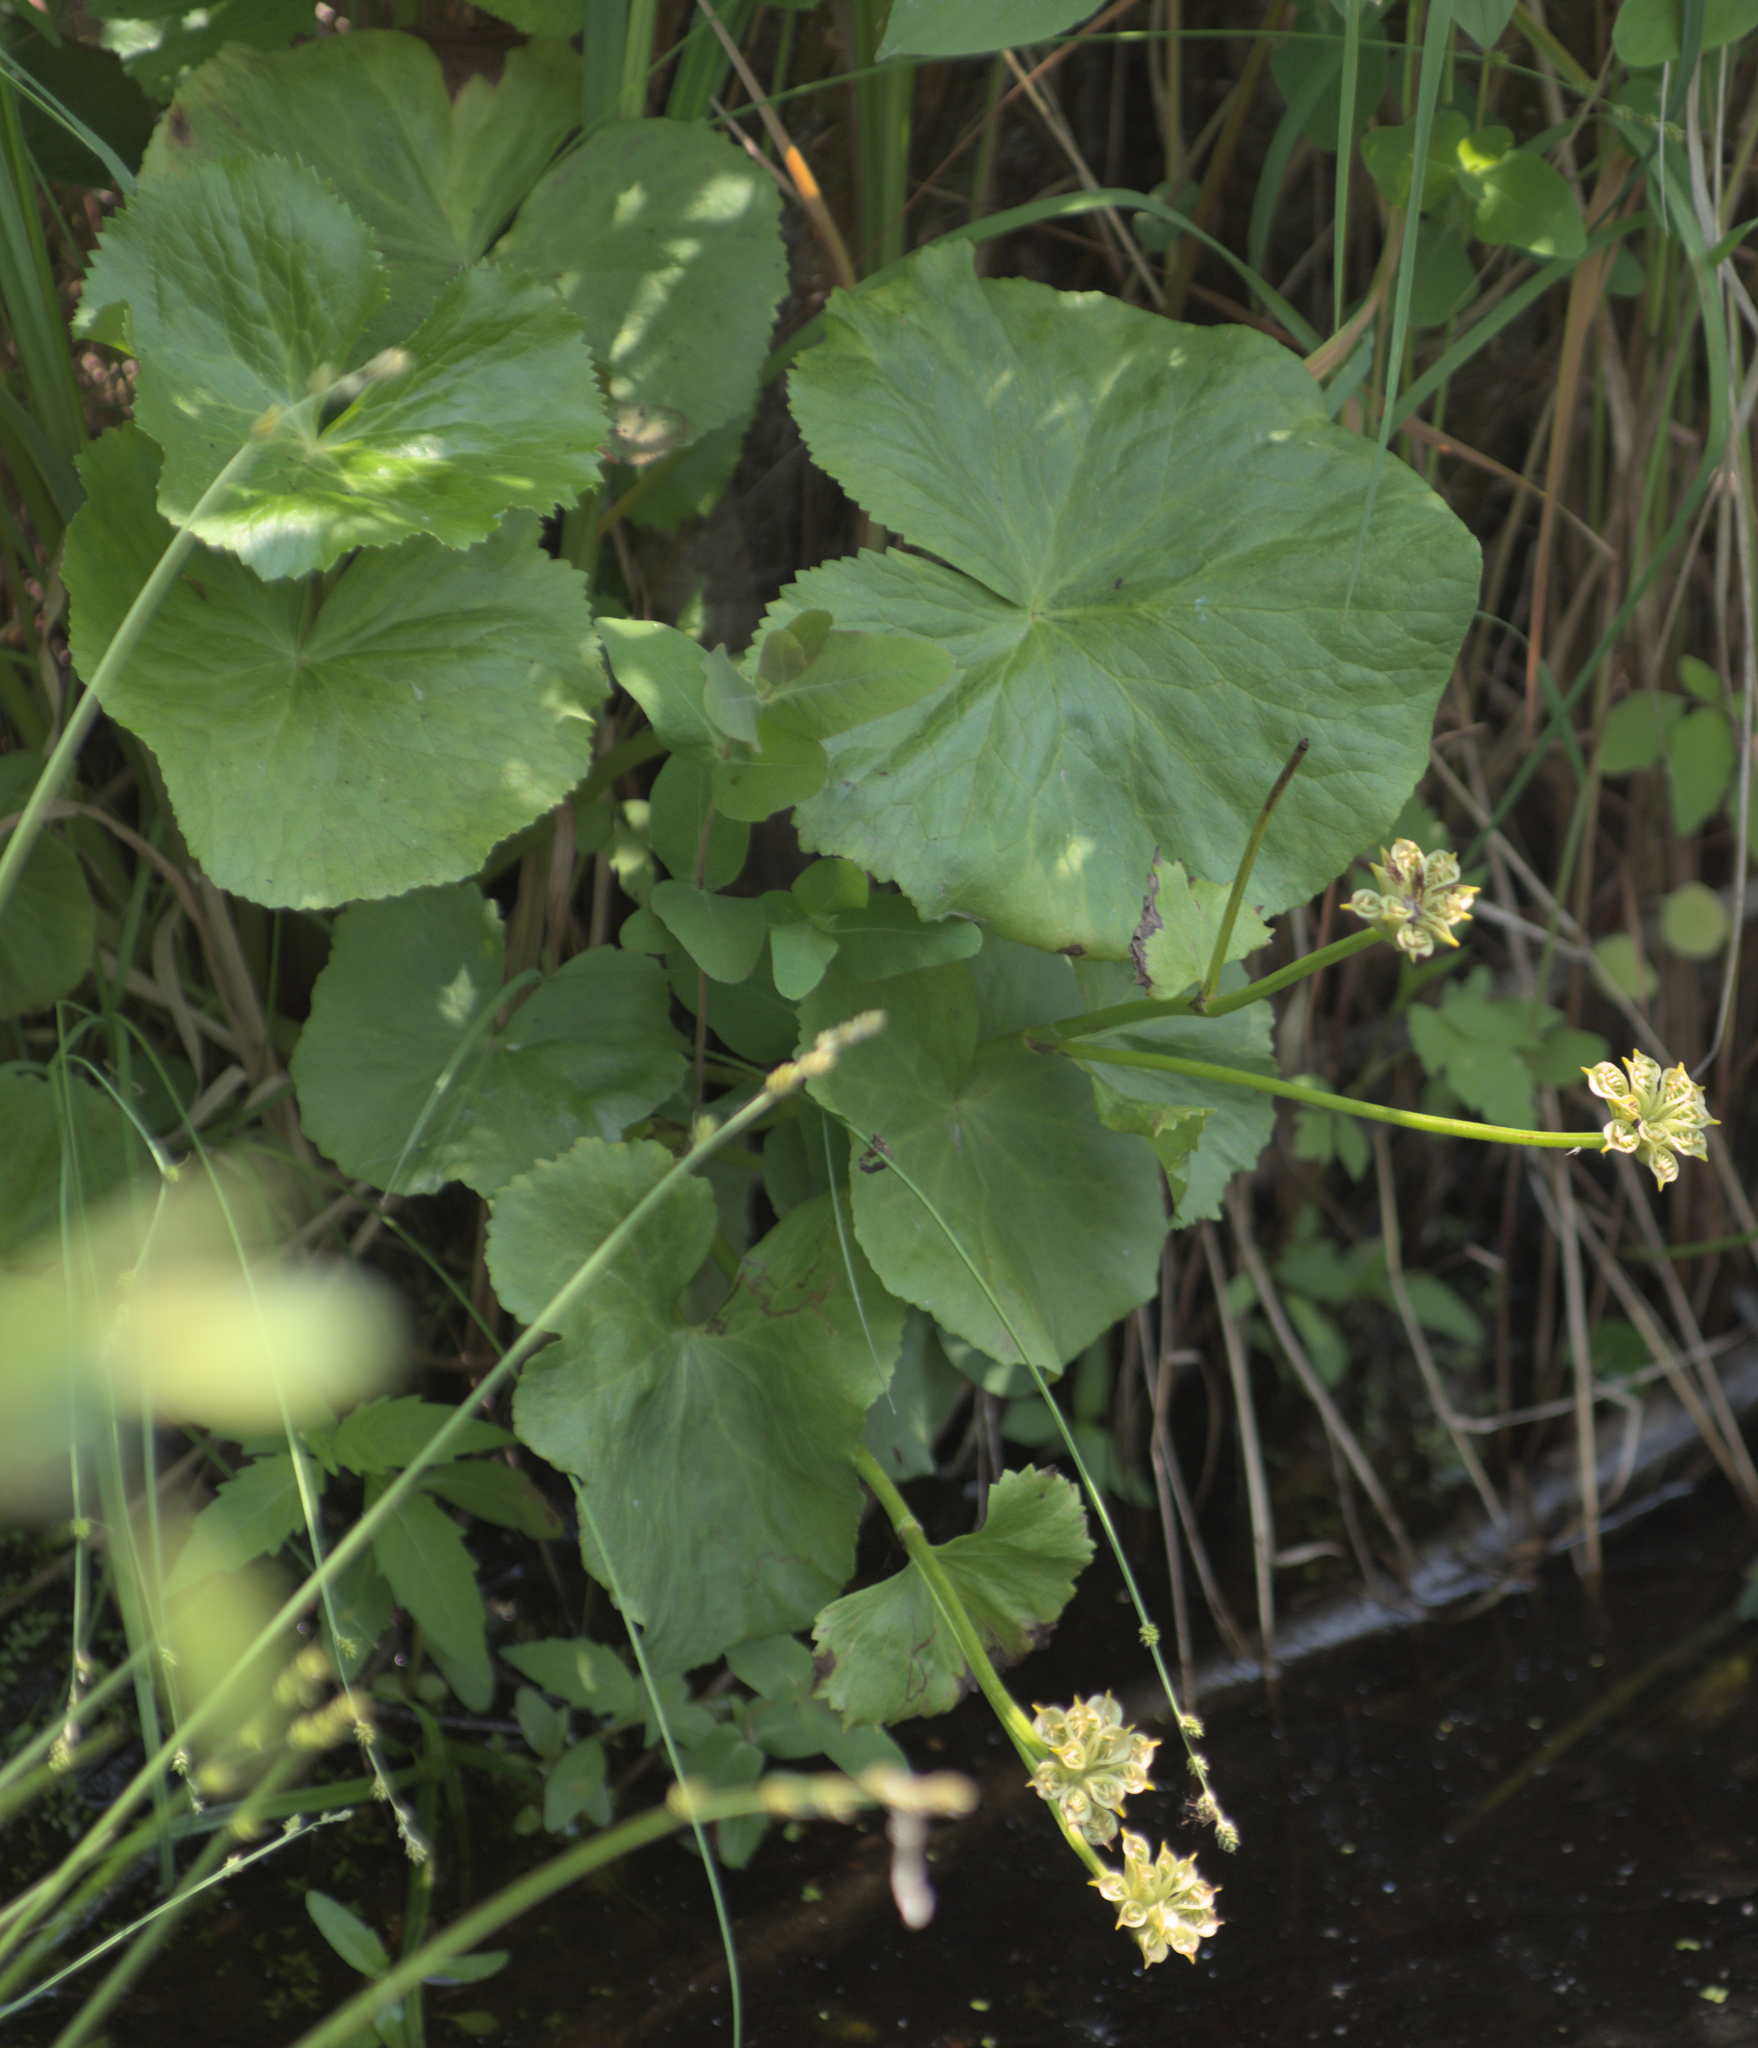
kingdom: Plantae
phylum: Tracheophyta
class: Magnoliopsida
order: Ranunculales
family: Ranunculaceae
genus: Caltha
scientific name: Caltha palustris
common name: Marsh marigold
